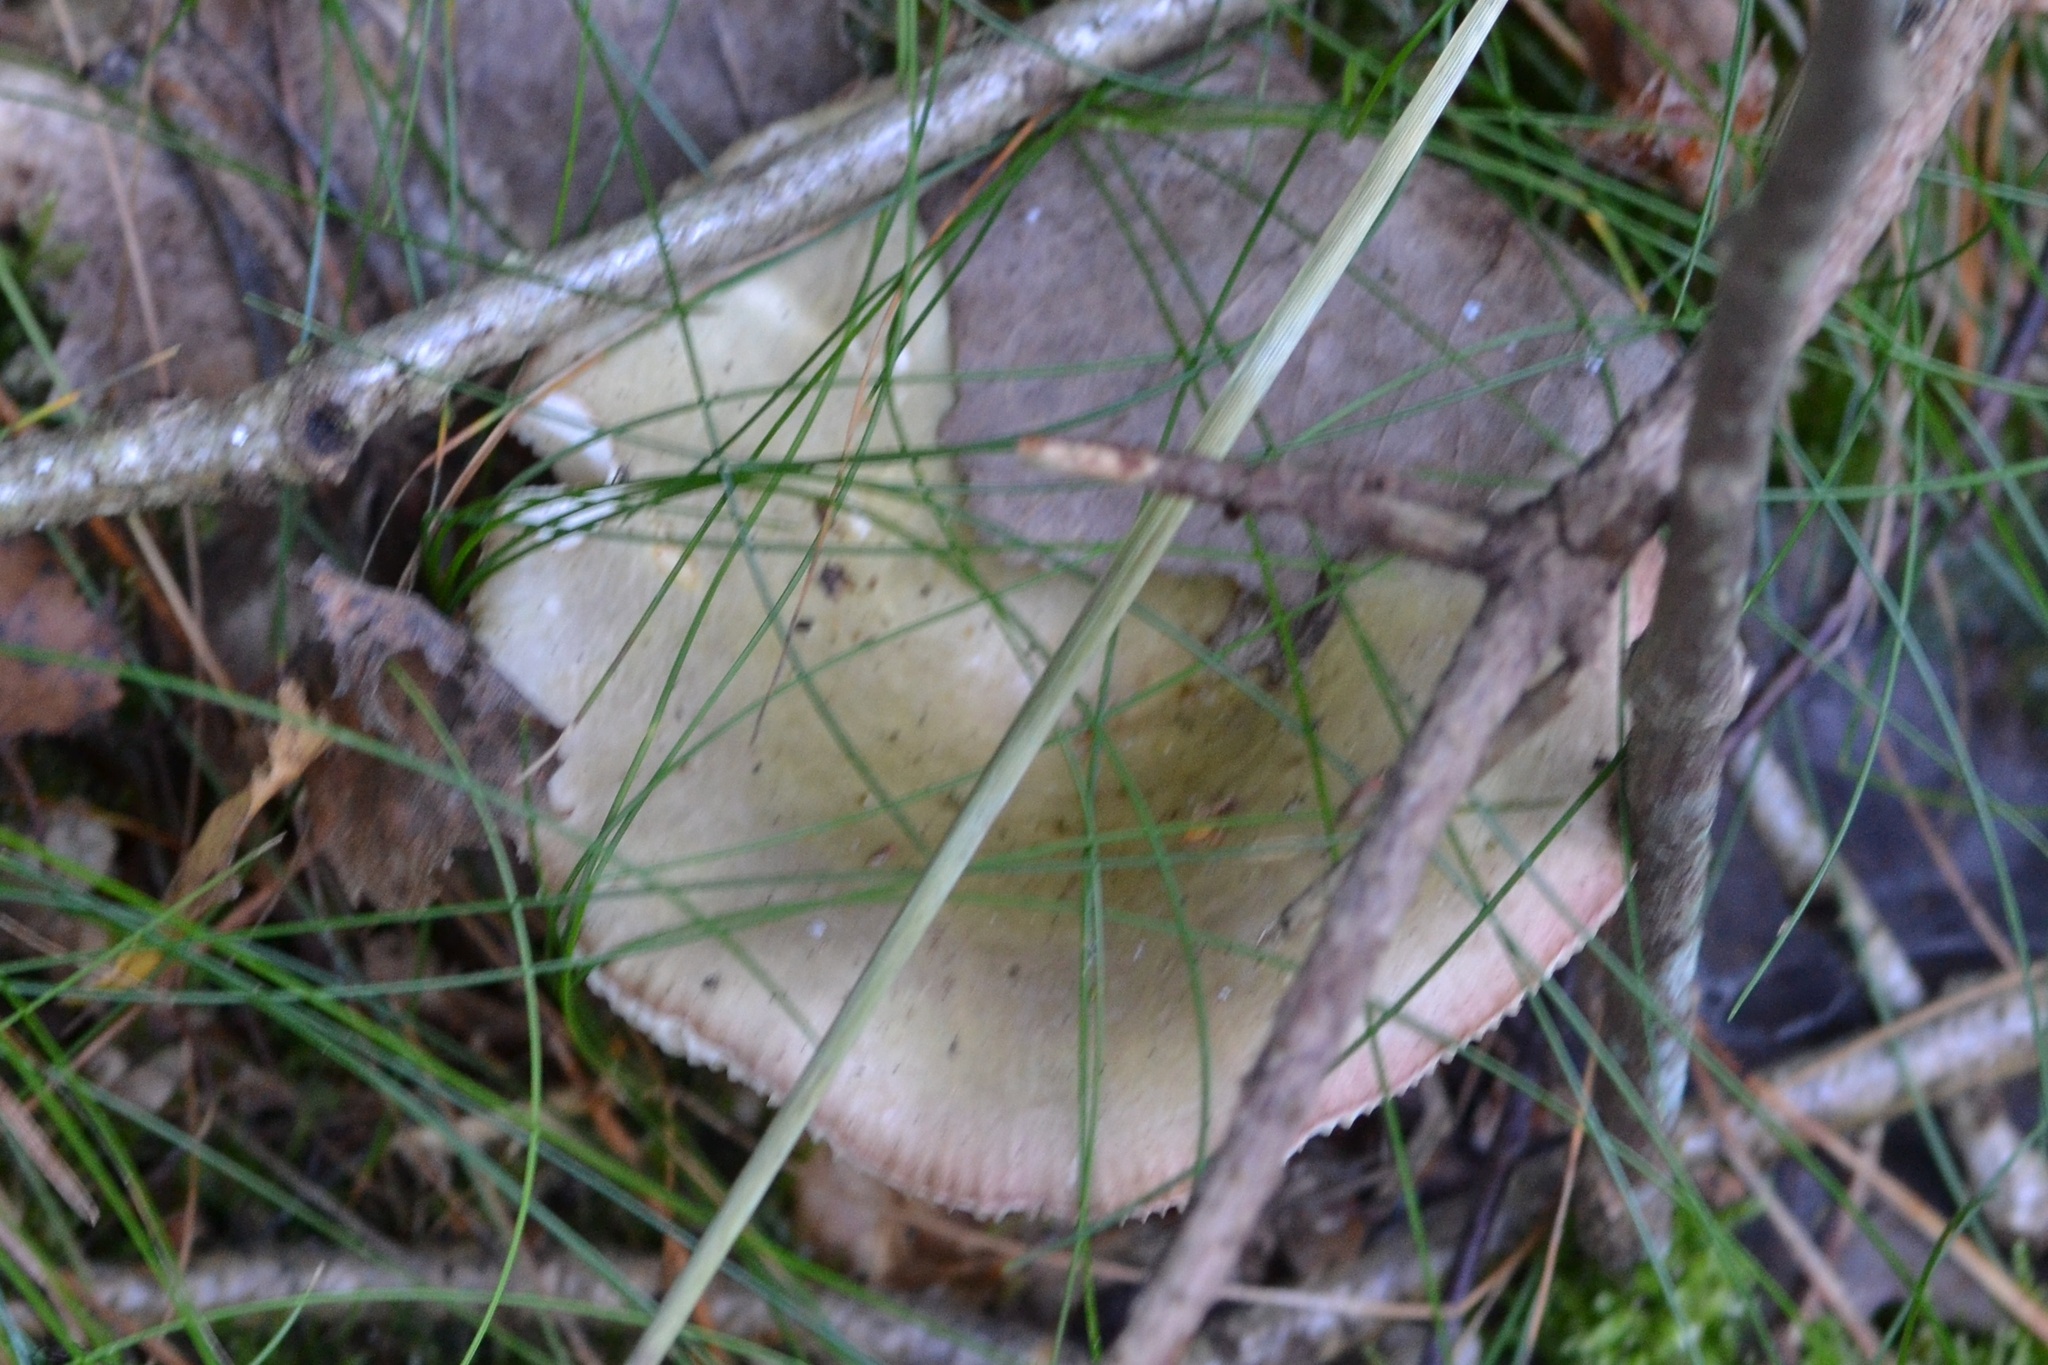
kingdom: Fungi
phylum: Basidiomycota
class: Agaricomycetes
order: Russulales
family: Russulaceae
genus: Russula
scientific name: Russula aeruginea
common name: Green brittlegill
